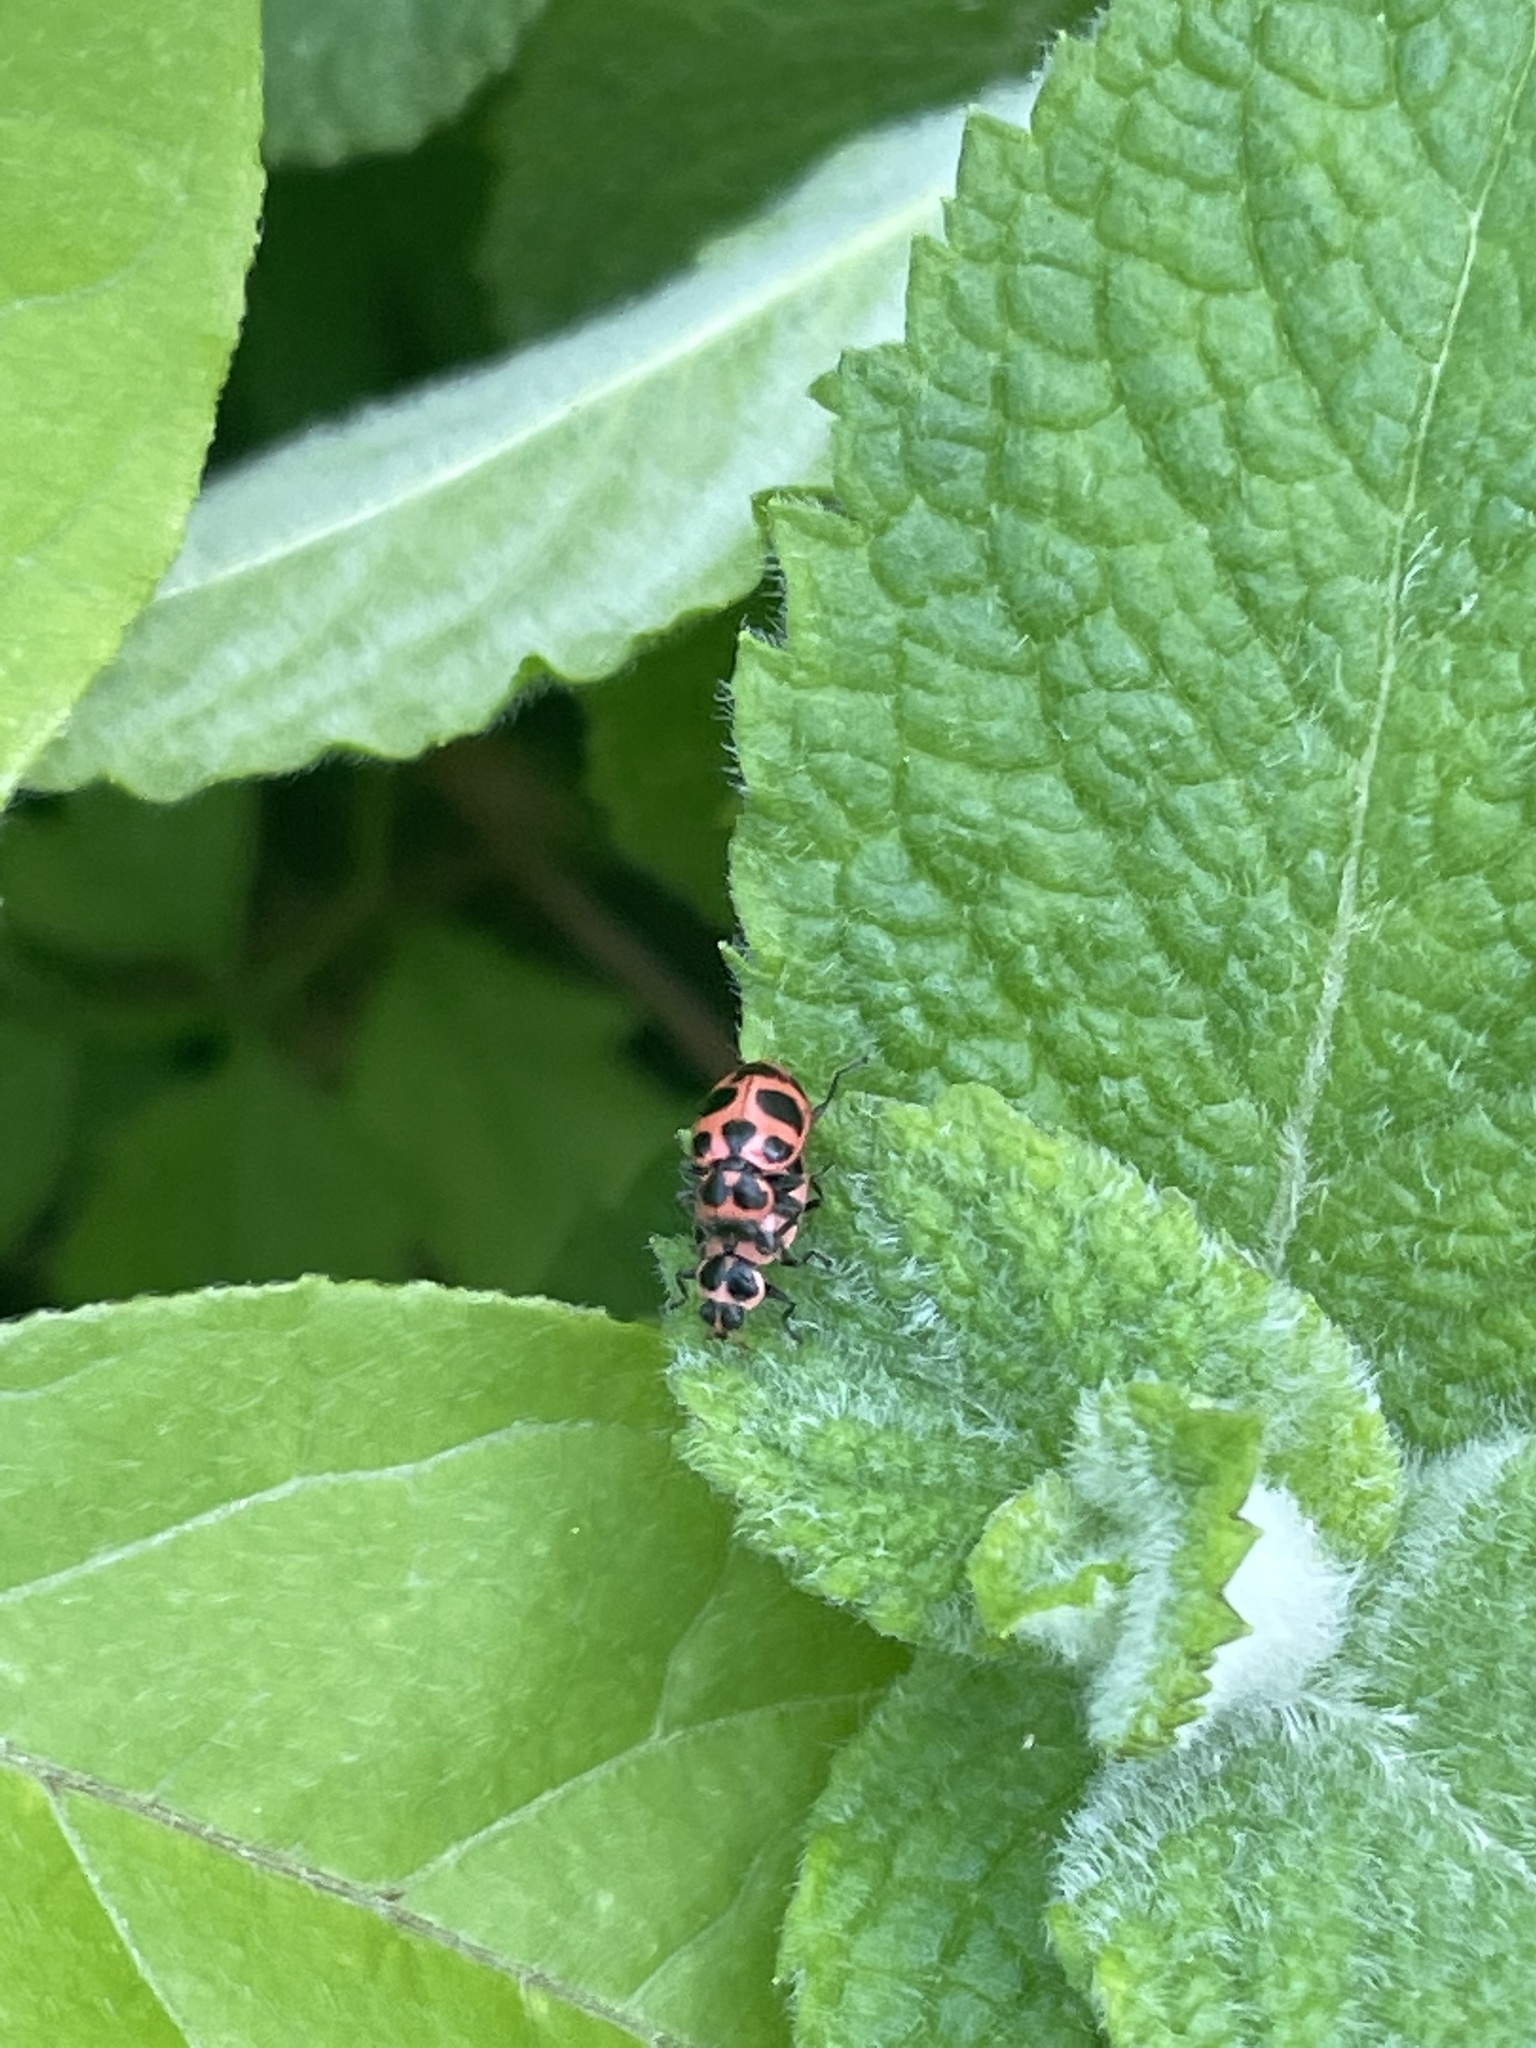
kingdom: Animalia
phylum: Arthropoda
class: Insecta
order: Coleoptera
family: Coccinellidae
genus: Coleomegilla
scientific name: Coleomegilla maculata
